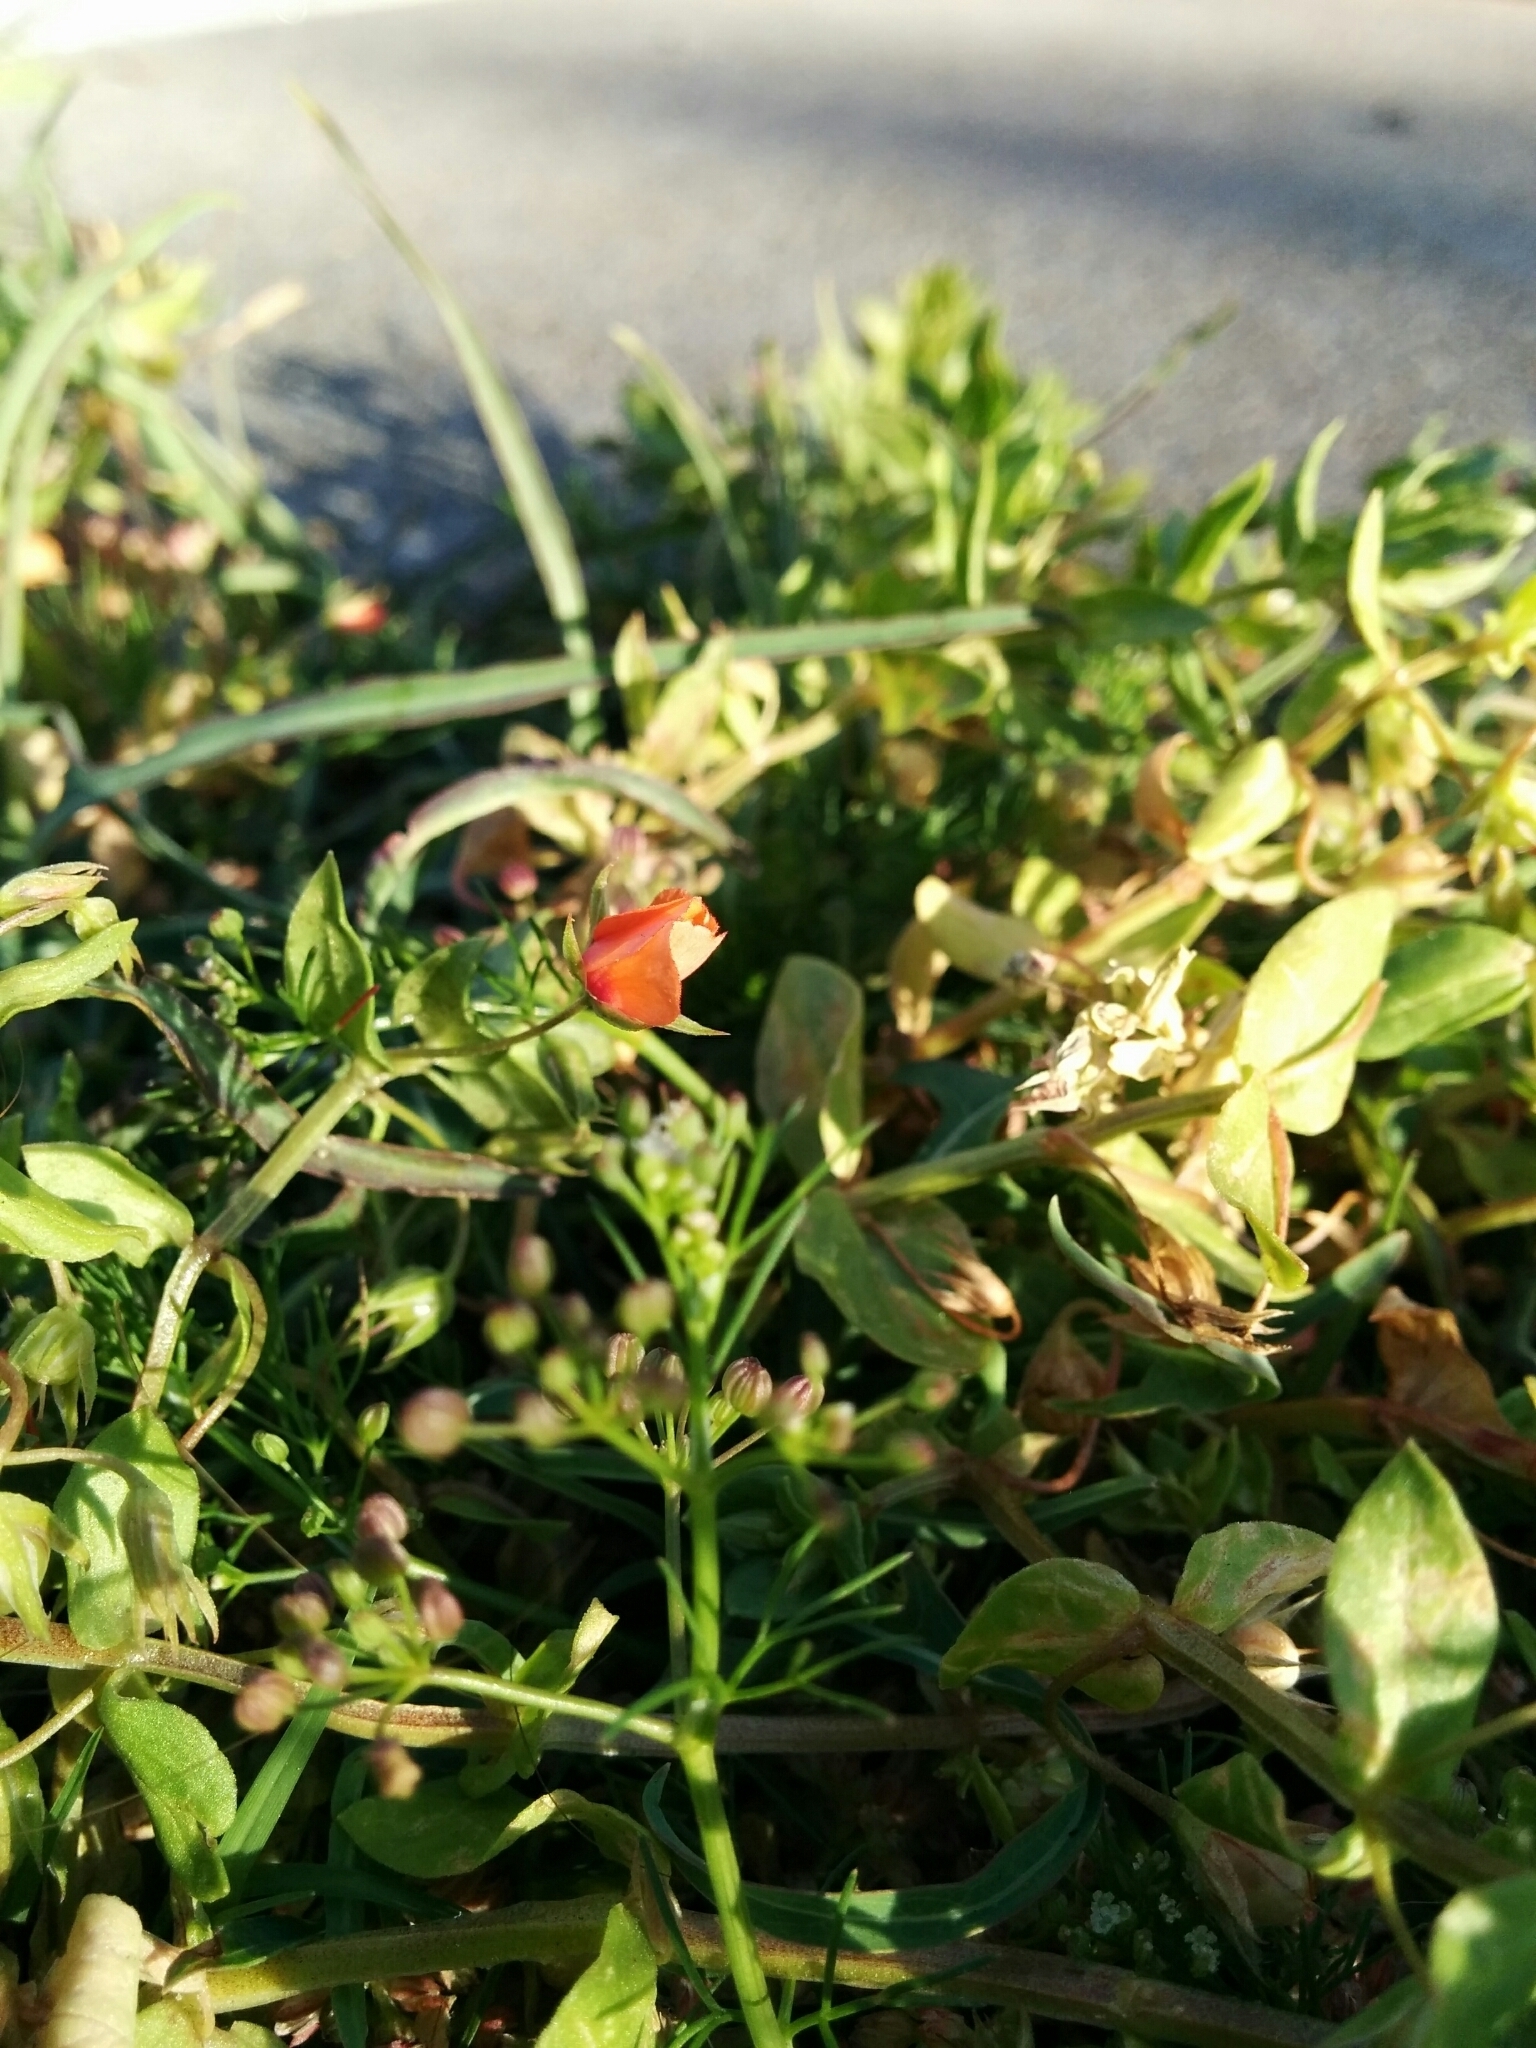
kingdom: Plantae
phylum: Tracheophyta
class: Magnoliopsida
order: Ericales
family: Primulaceae
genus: Lysimachia
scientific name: Lysimachia arvensis
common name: Scarlet pimpernel
